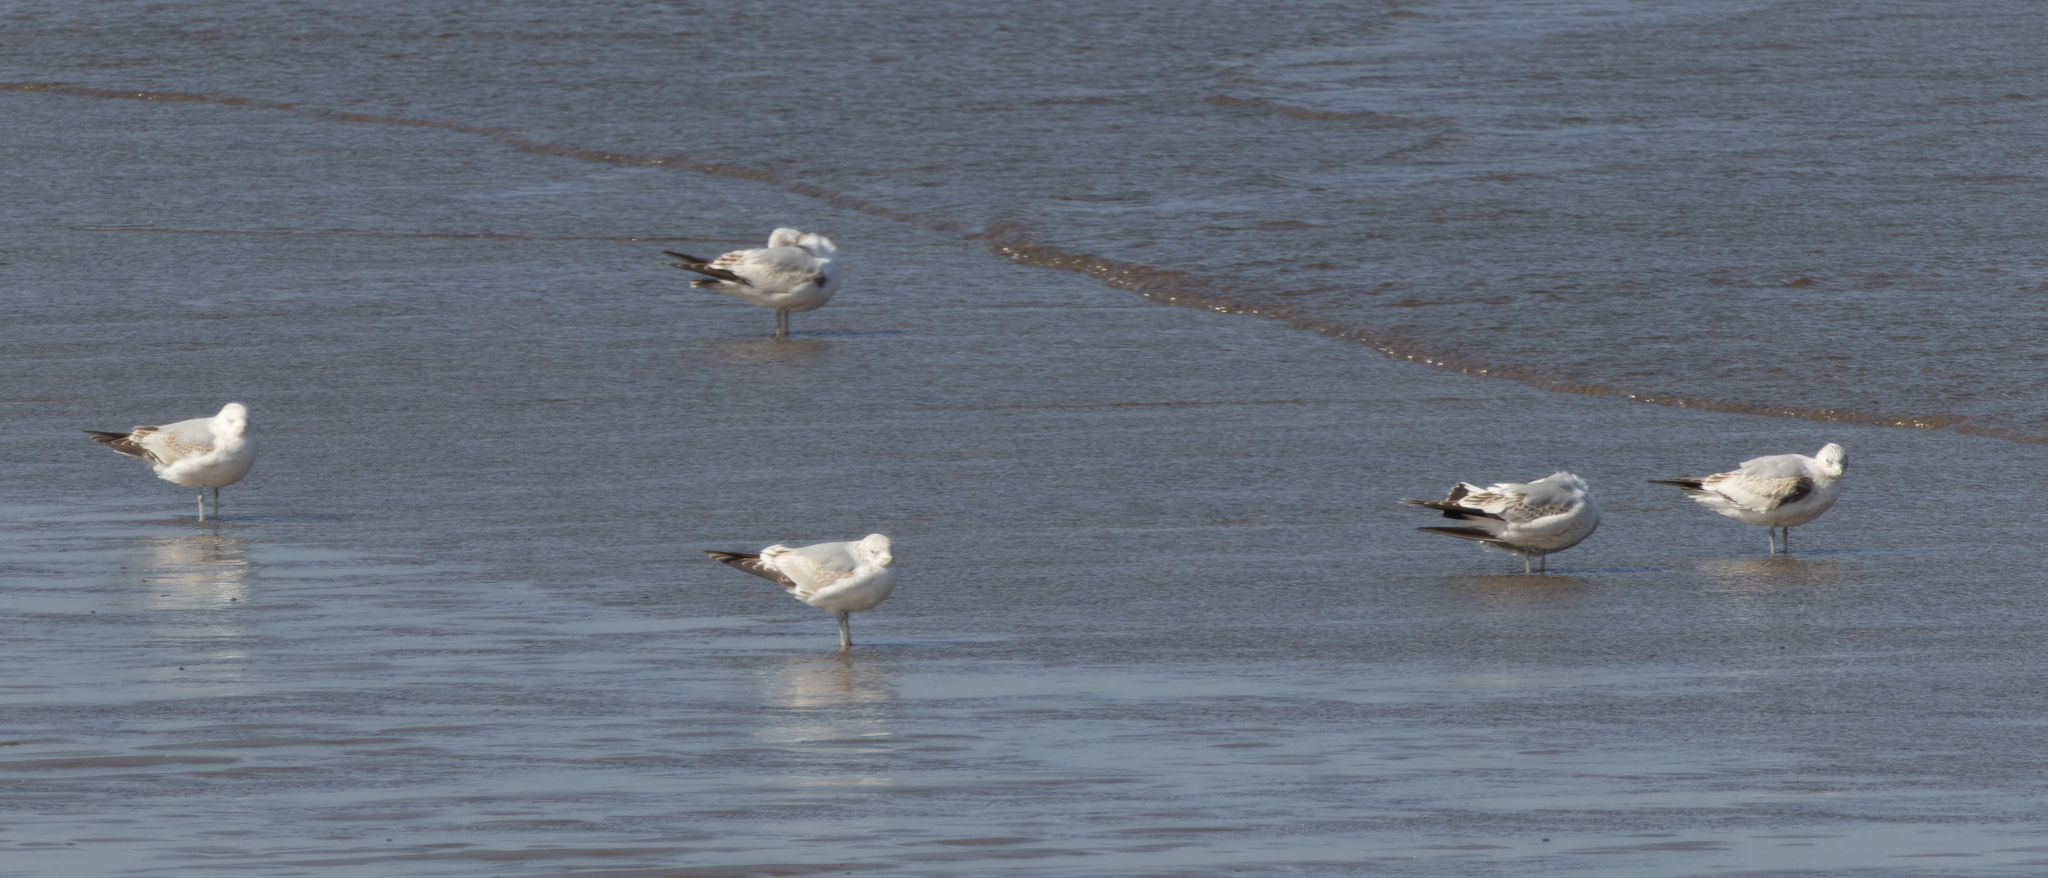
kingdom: Animalia
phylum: Chordata
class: Aves
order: Charadriiformes
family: Laridae
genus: Larus
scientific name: Larus argentatus
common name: Herring gull
